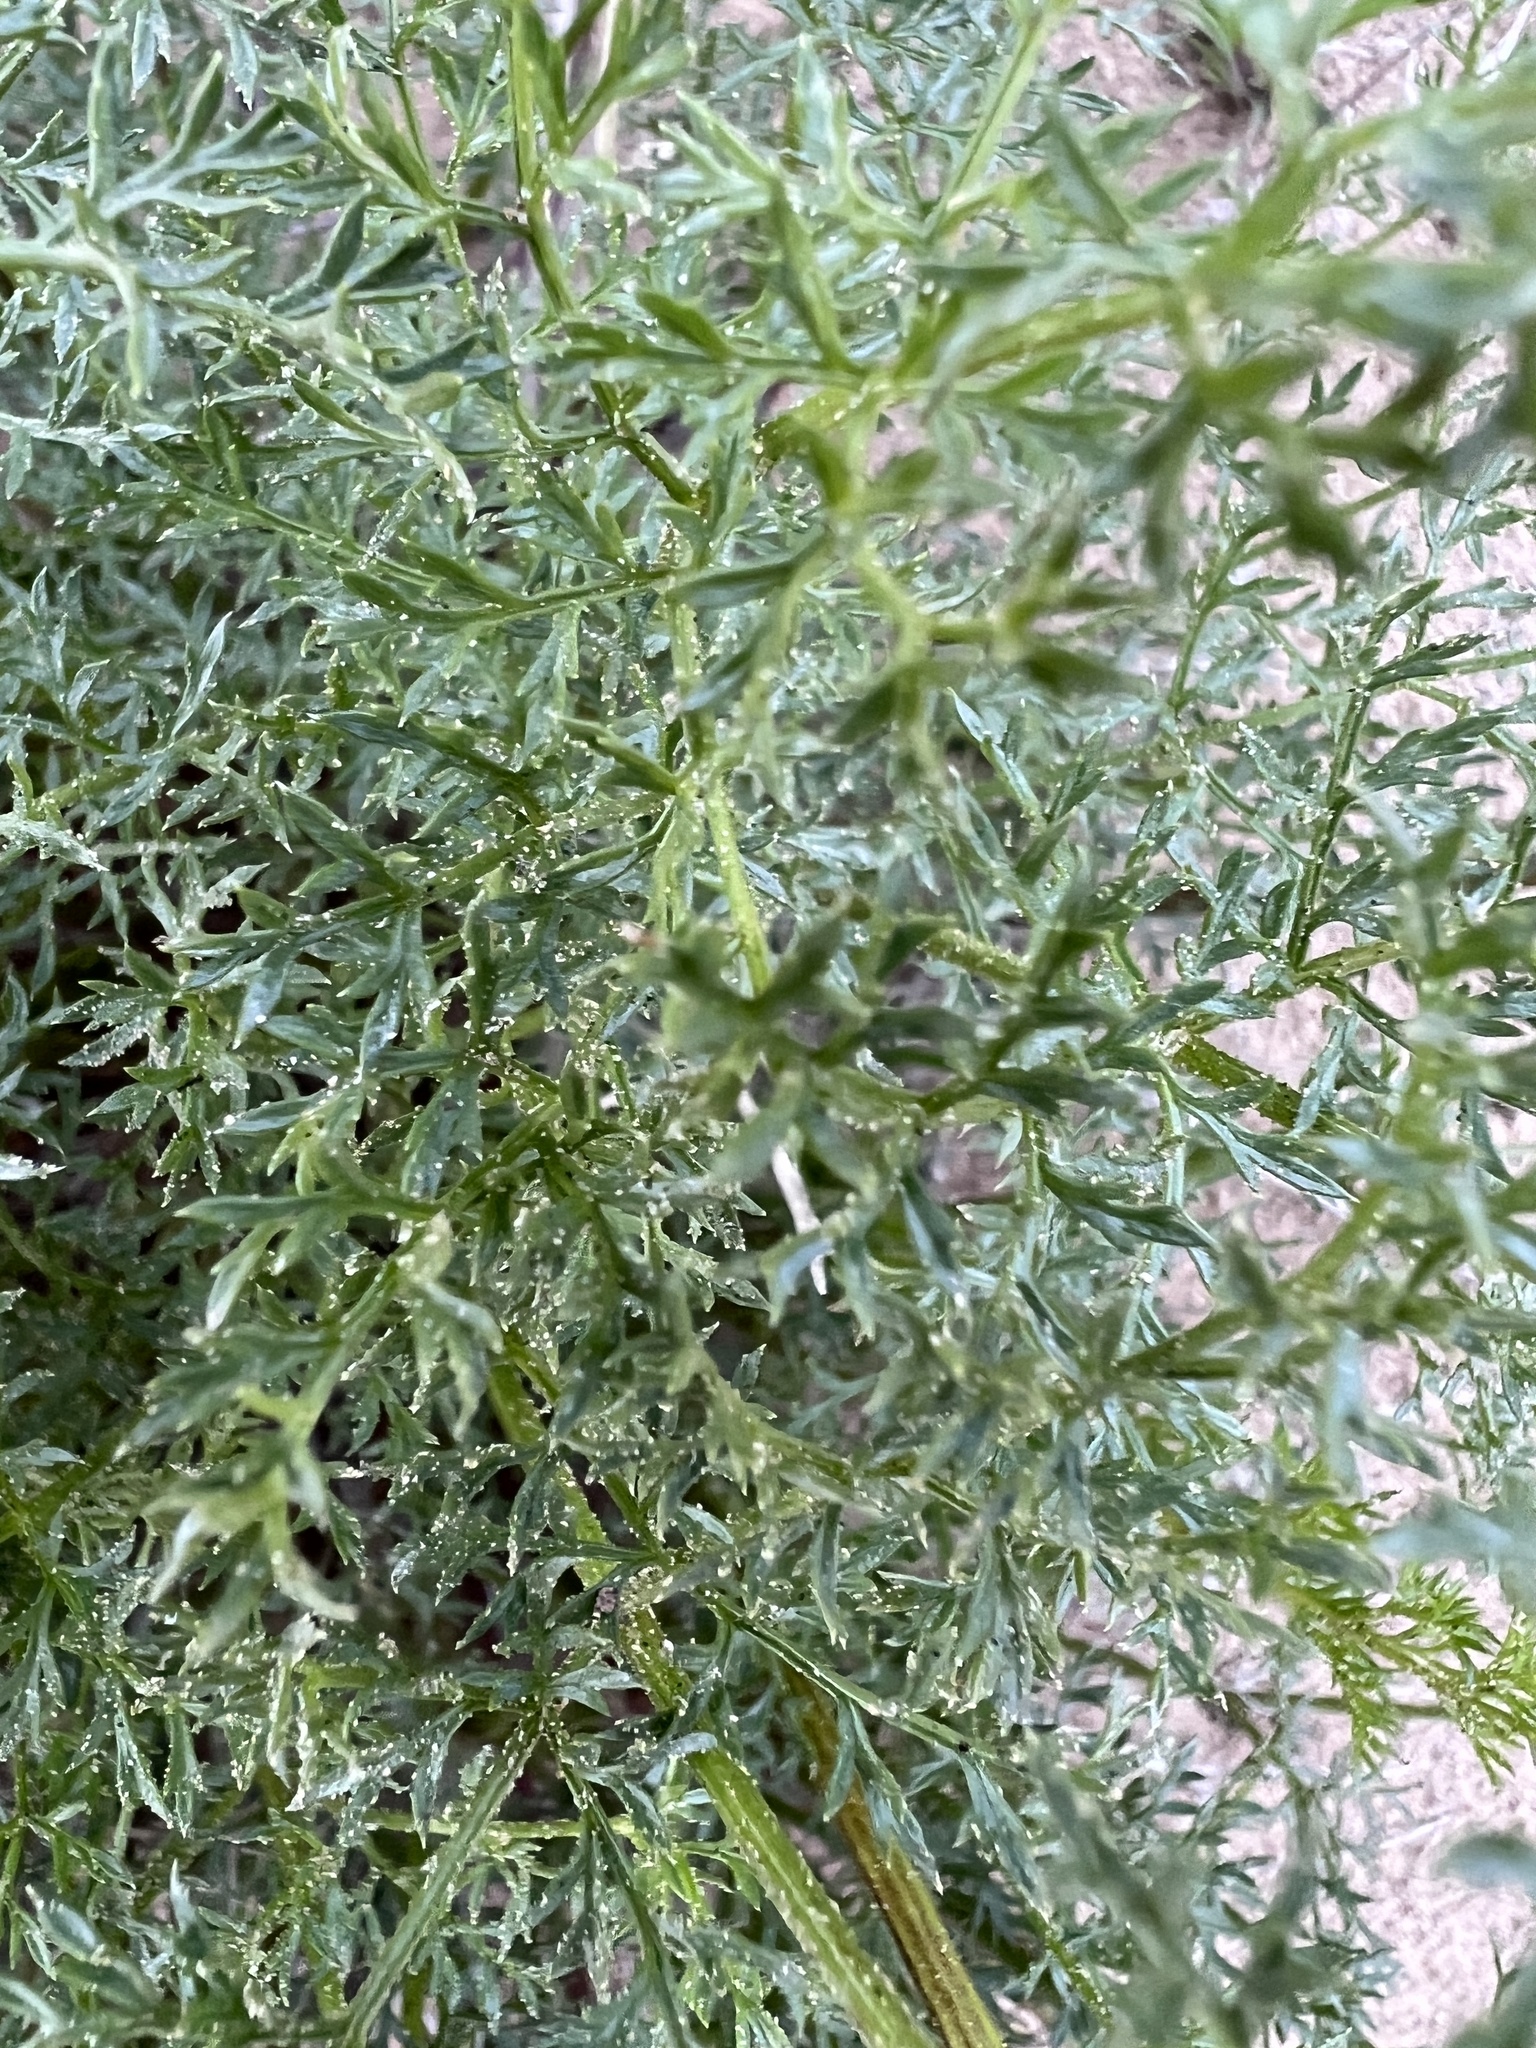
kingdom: Plantae
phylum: Tracheophyta
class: Magnoliopsida
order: Apiales
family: Apiaceae
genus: Pteryxia
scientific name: Pteryxia terebinthina
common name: Turpentine wavewing
